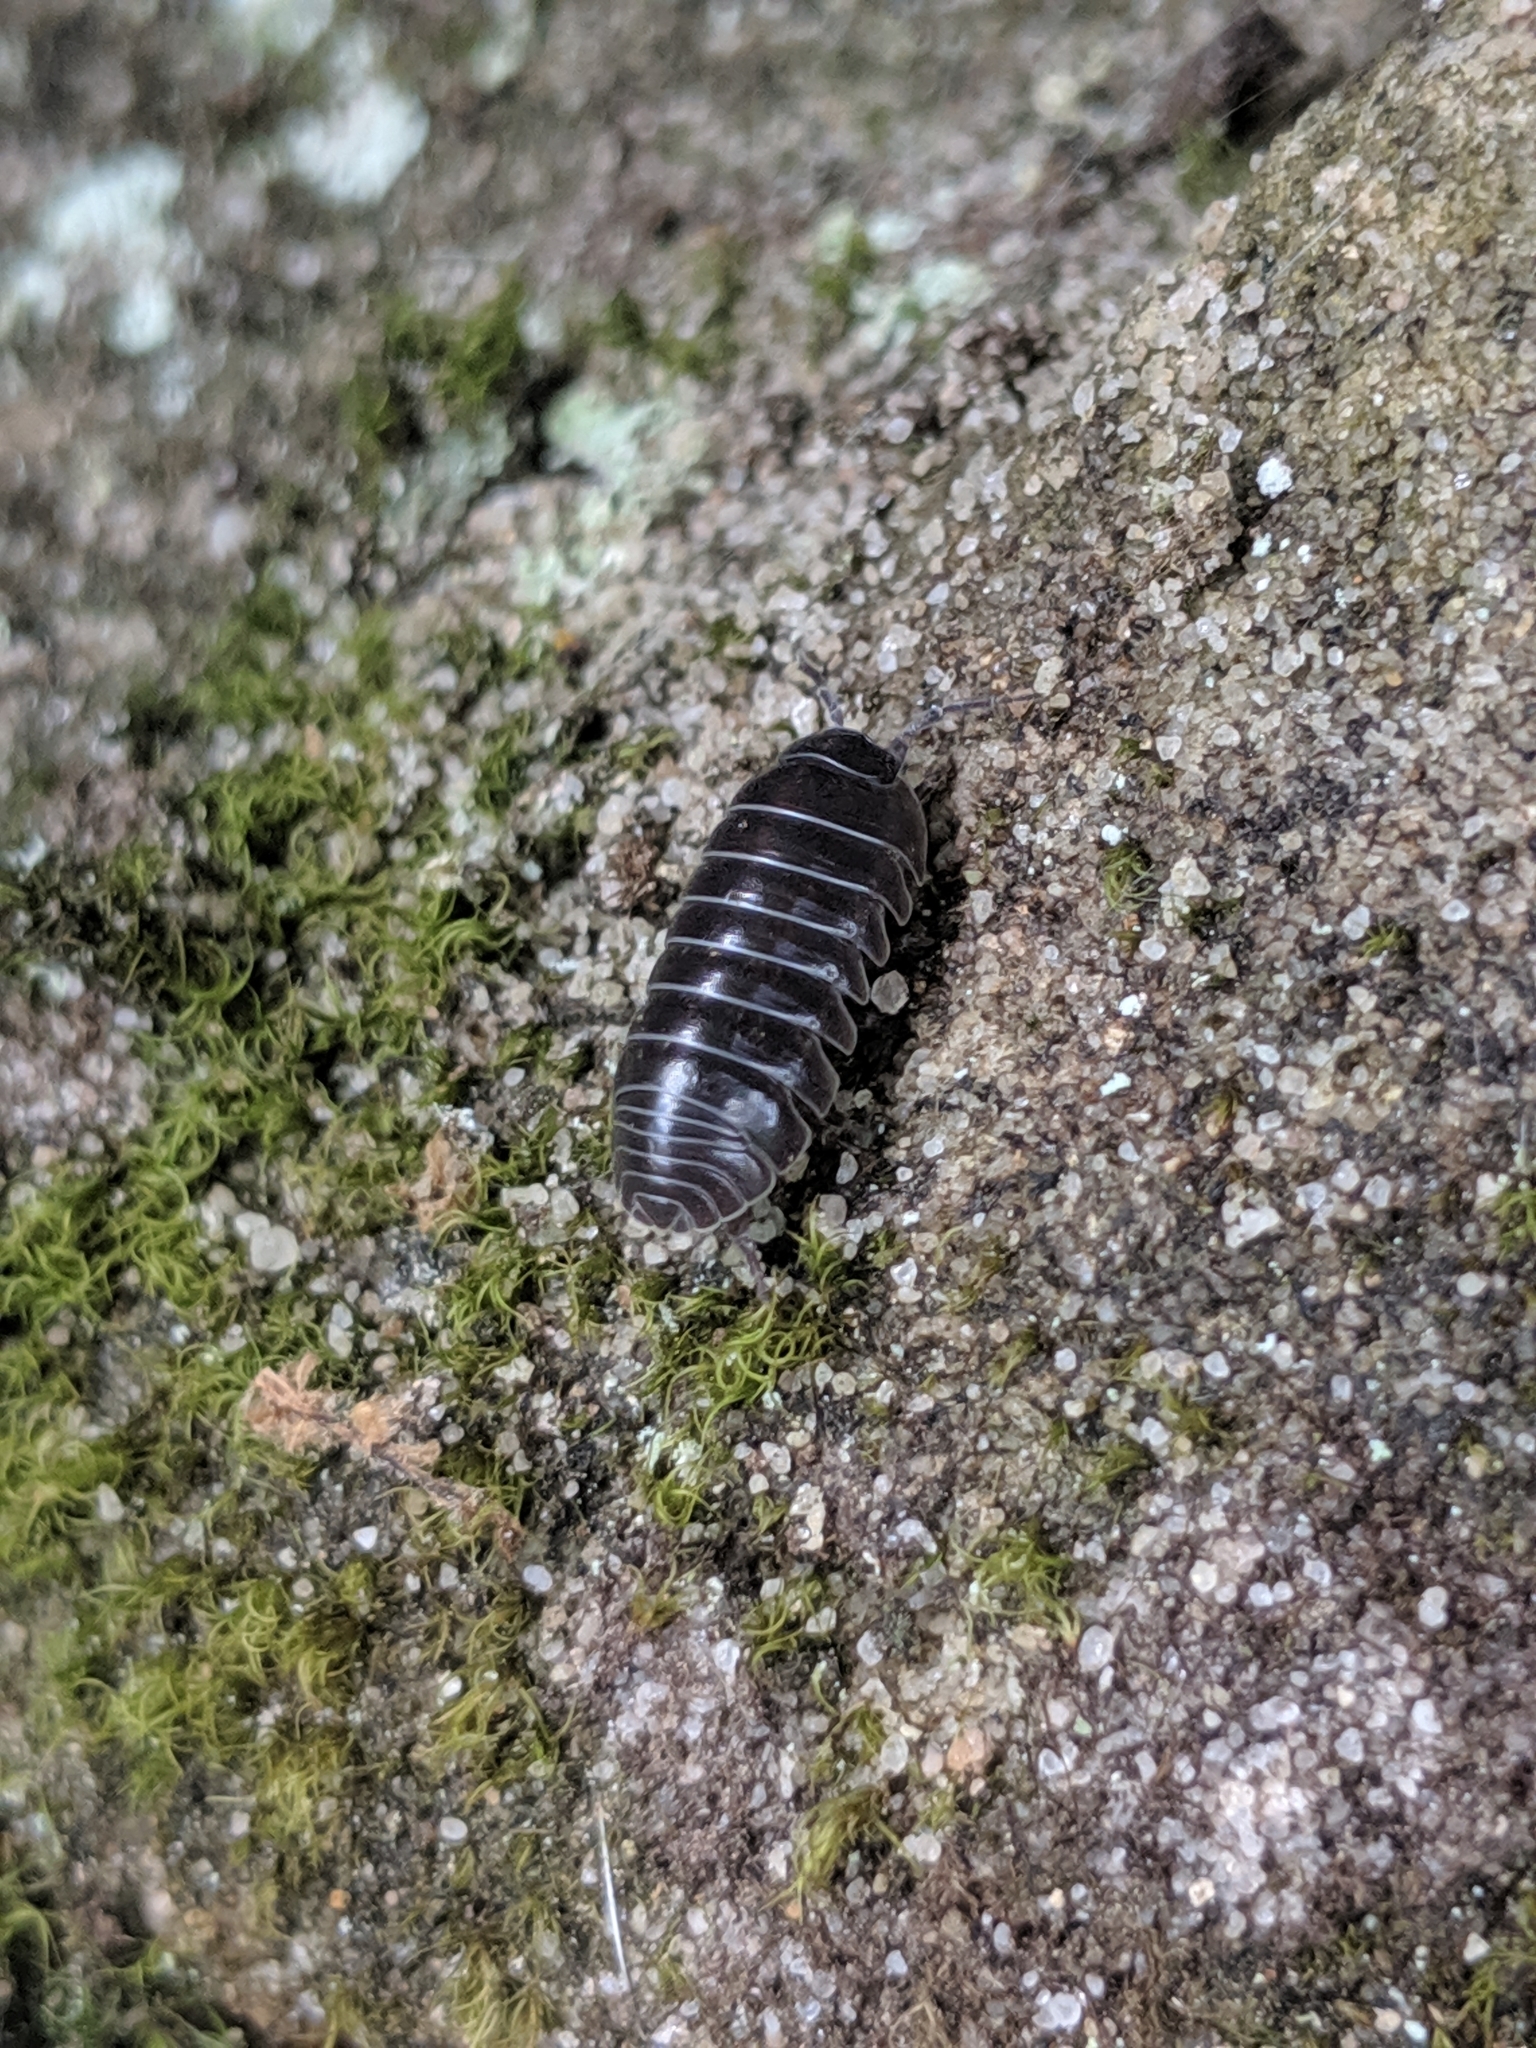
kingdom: Animalia
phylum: Arthropoda
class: Malacostraca
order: Isopoda
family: Armadillidiidae
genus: Armadillidium
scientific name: Armadillidium vulgare
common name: Common pill woodlouse
